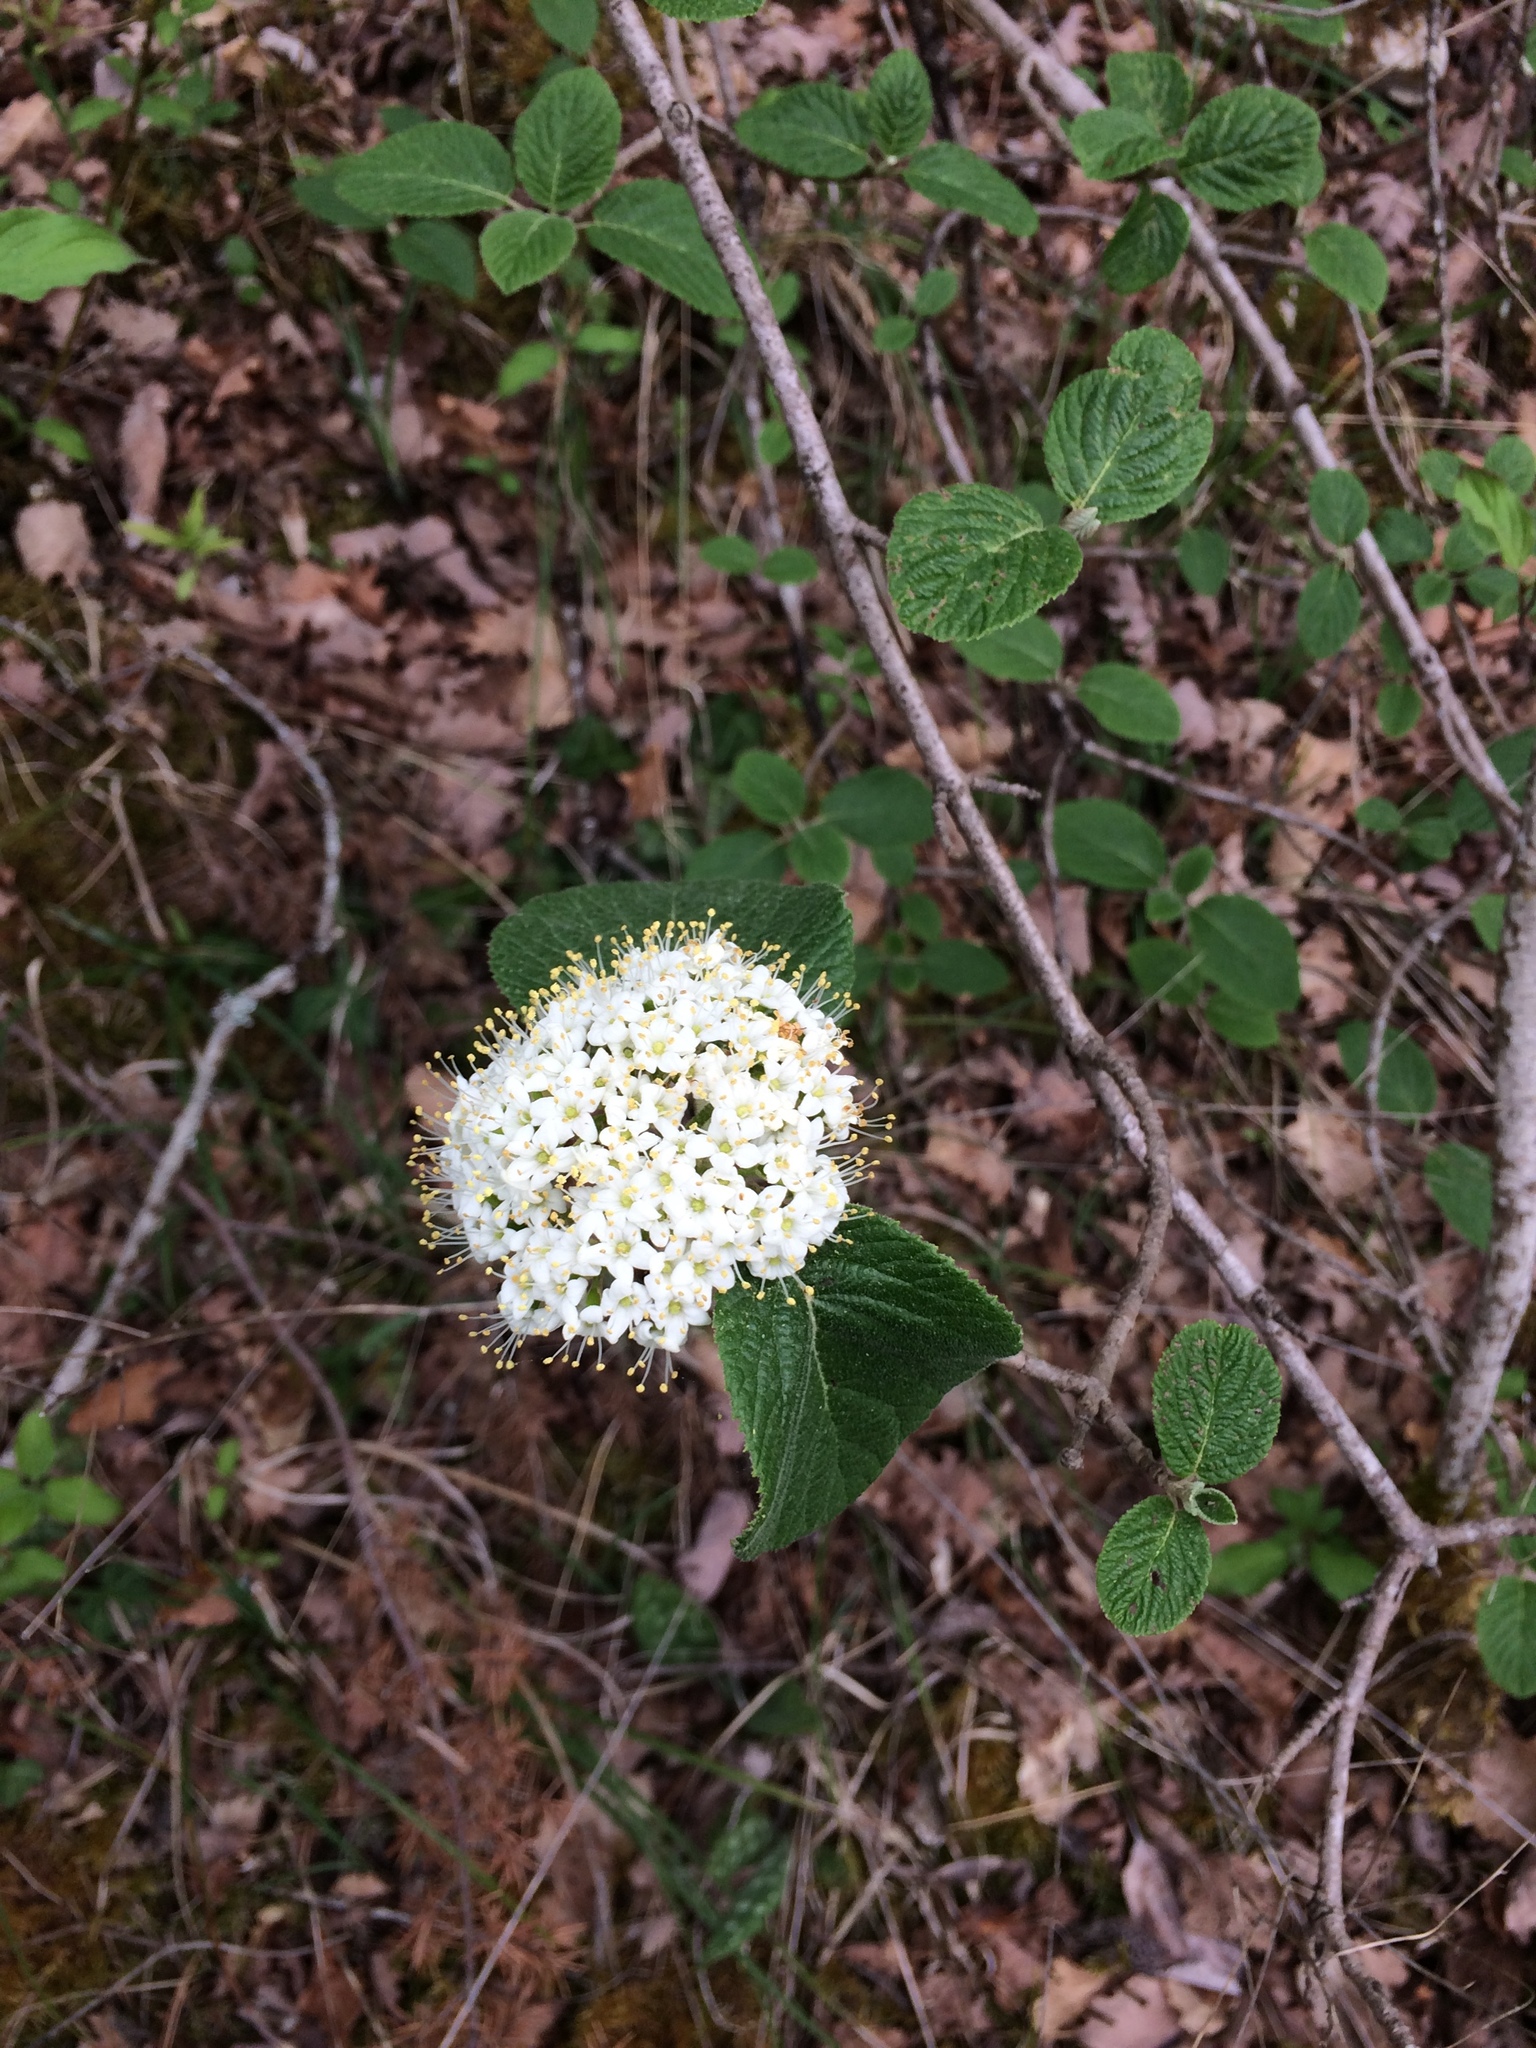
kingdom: Plantae
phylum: Tracheophyta
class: Magnoliopsida
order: Dipsacales
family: Viburnaceae
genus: Viburnum
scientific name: Viburnum lantana
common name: Wayfaring tree
